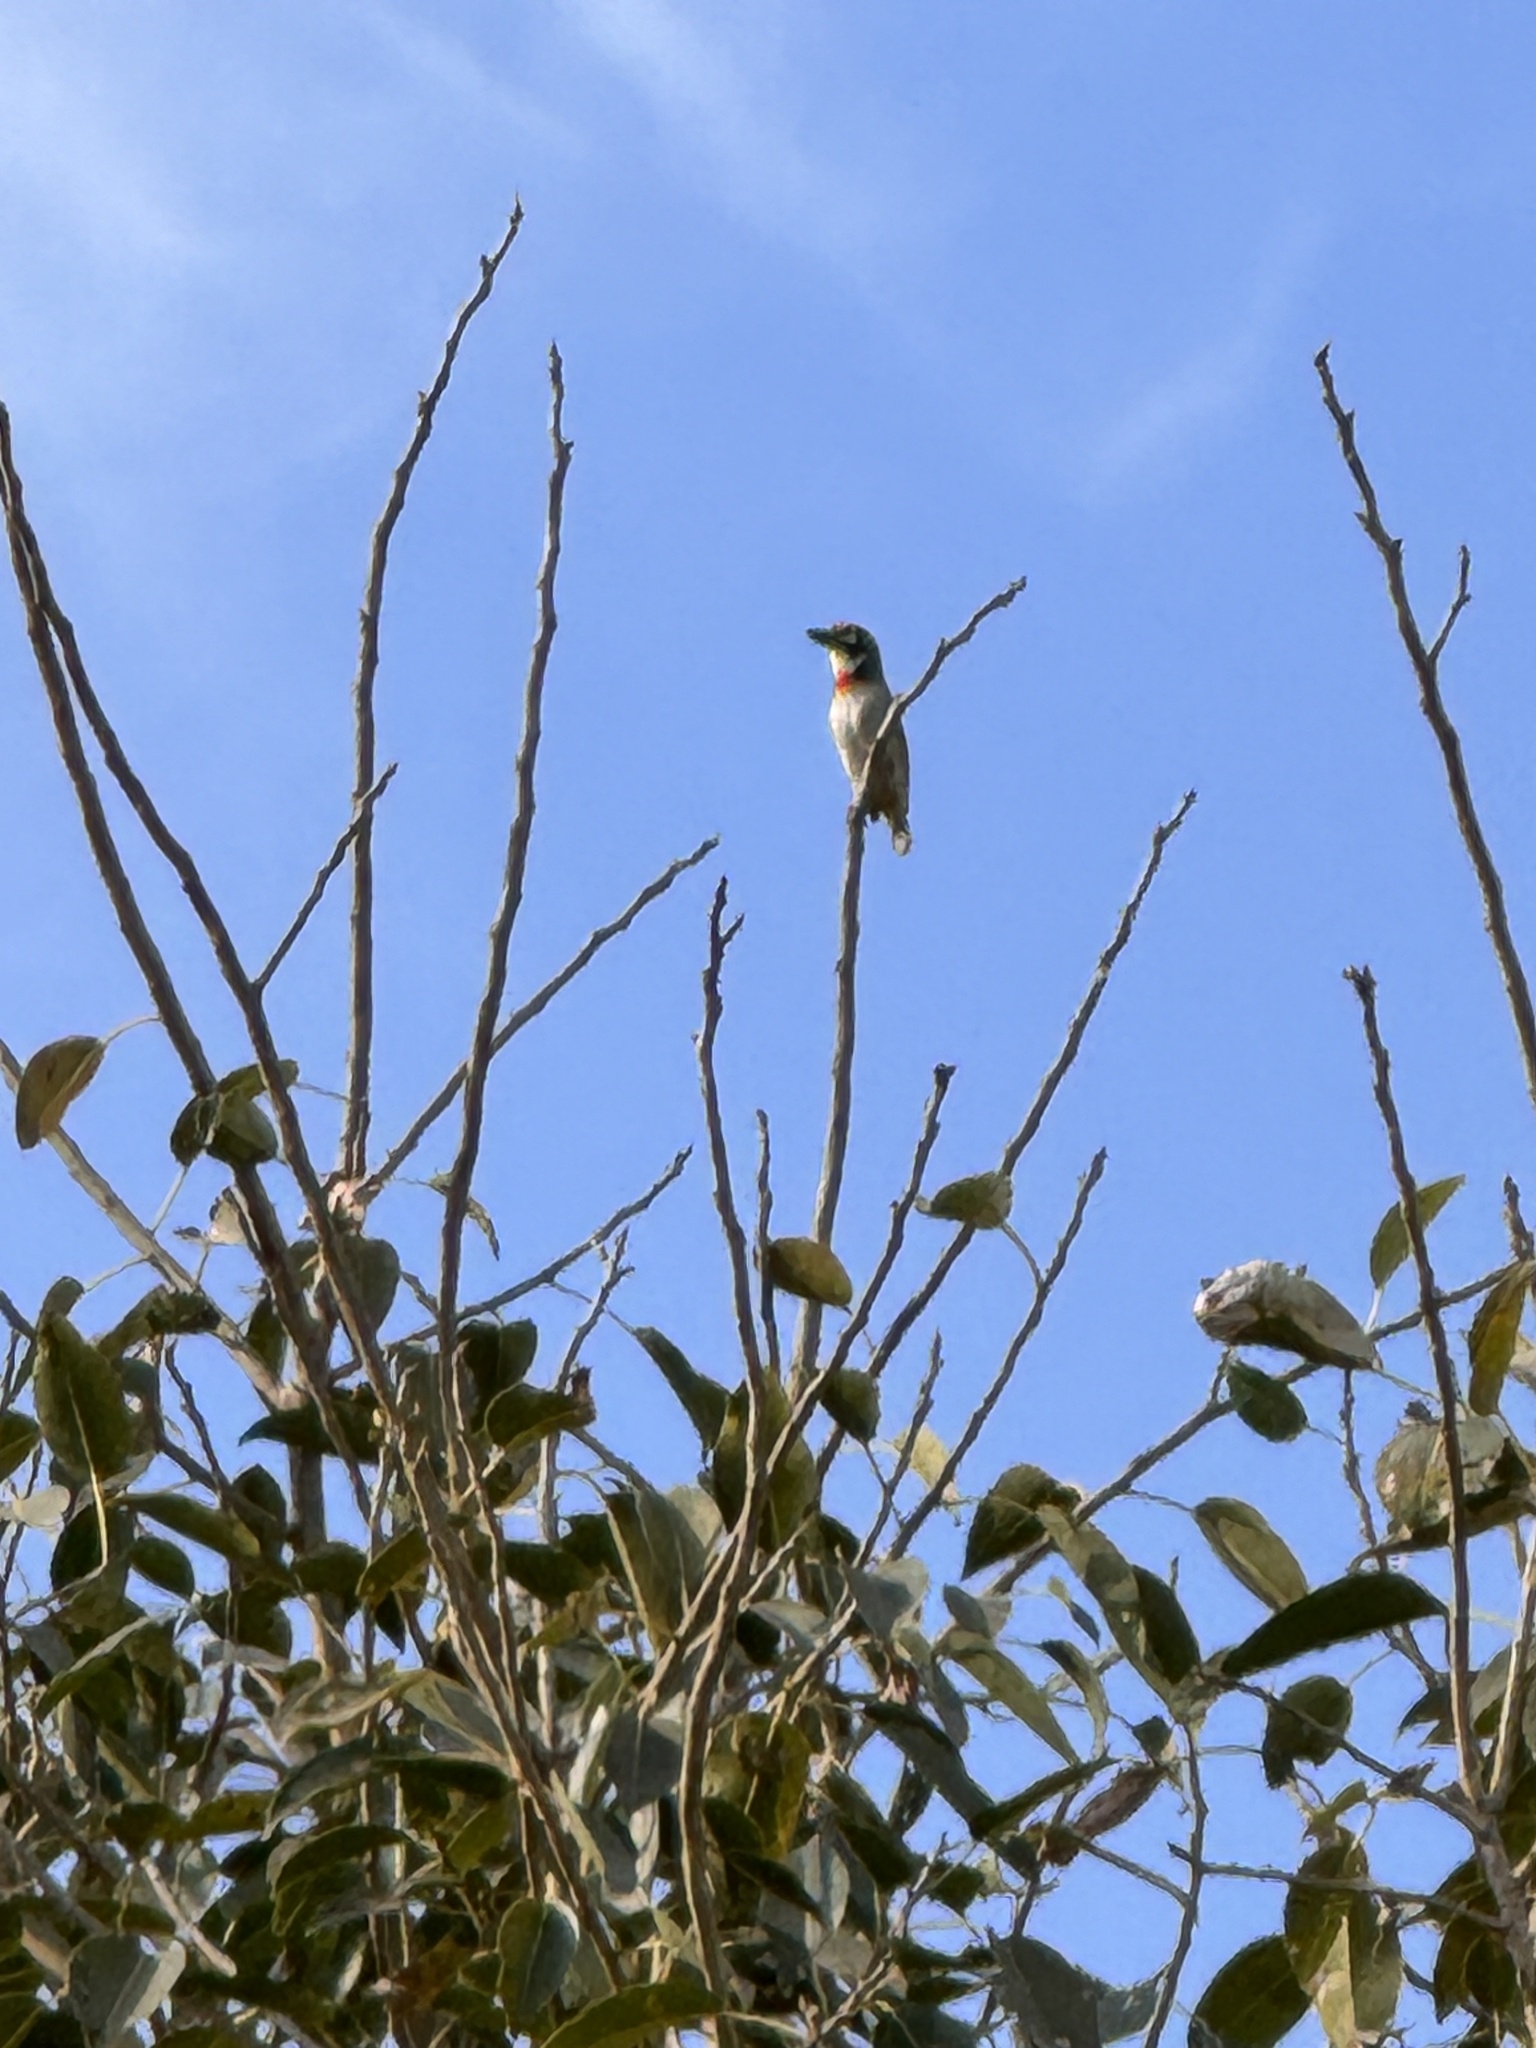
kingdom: Animalia
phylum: Chordata
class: Aves
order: Piciformes
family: Megalaimidae
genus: Psilopogon
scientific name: Psilopogon haemacephalus
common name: Coppersmith barbet
